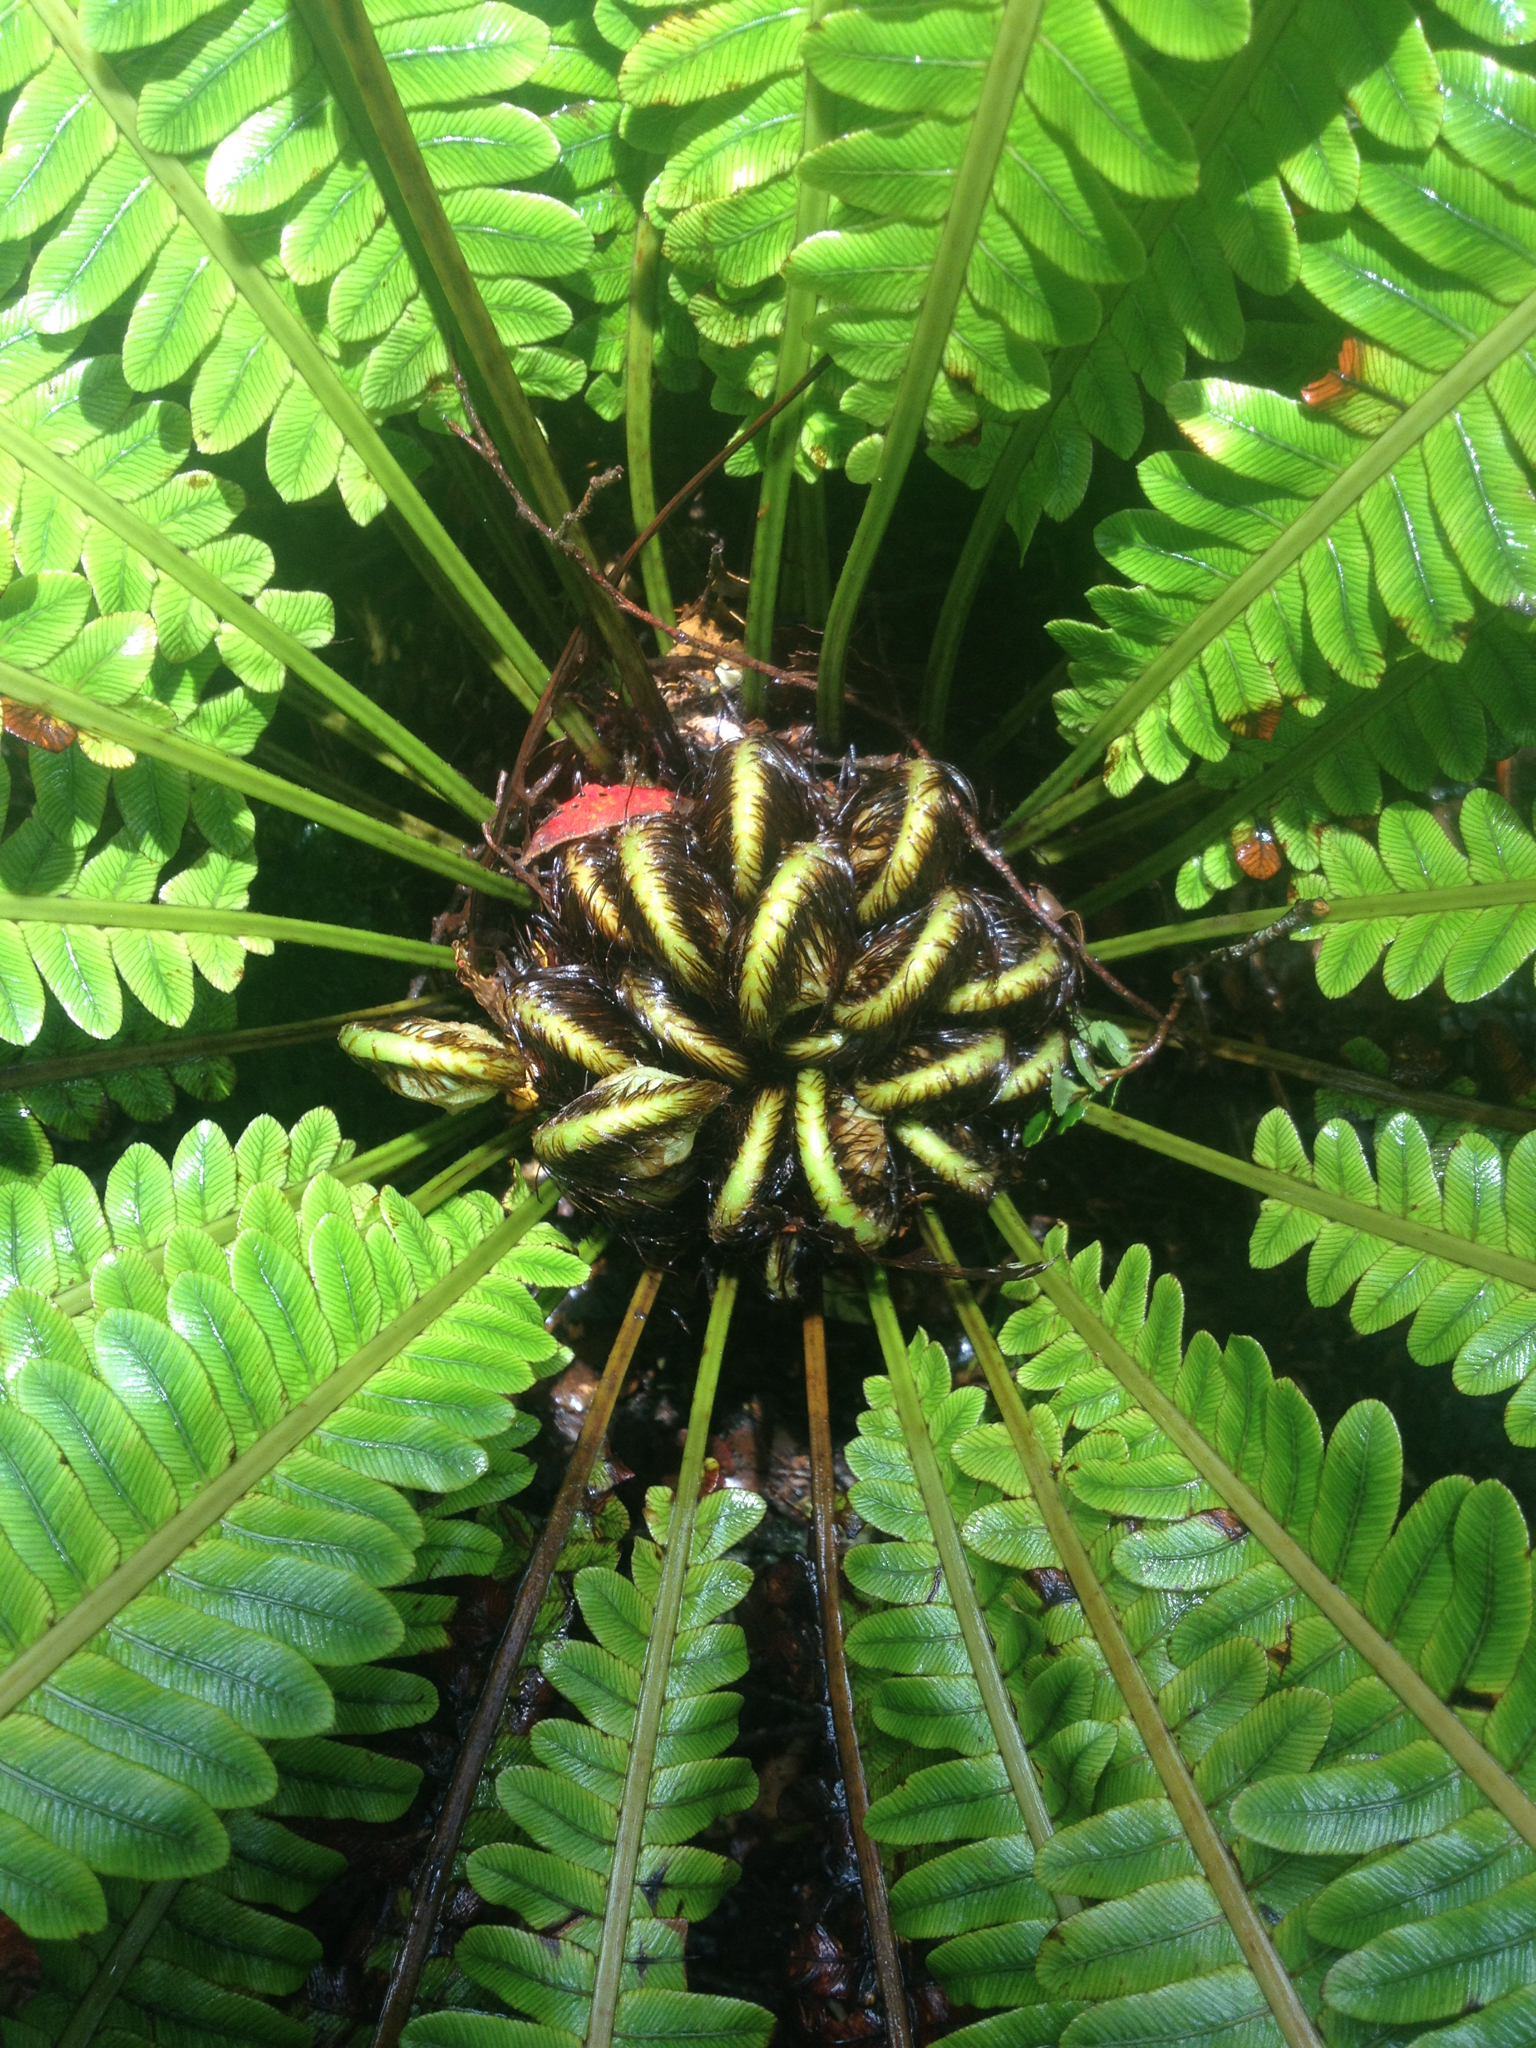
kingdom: Plantae
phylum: Tracheophyta
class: Polypodiopsida
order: Polypodiales
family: Blechnaceae
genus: Lomaria
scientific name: Lomaria discolor
